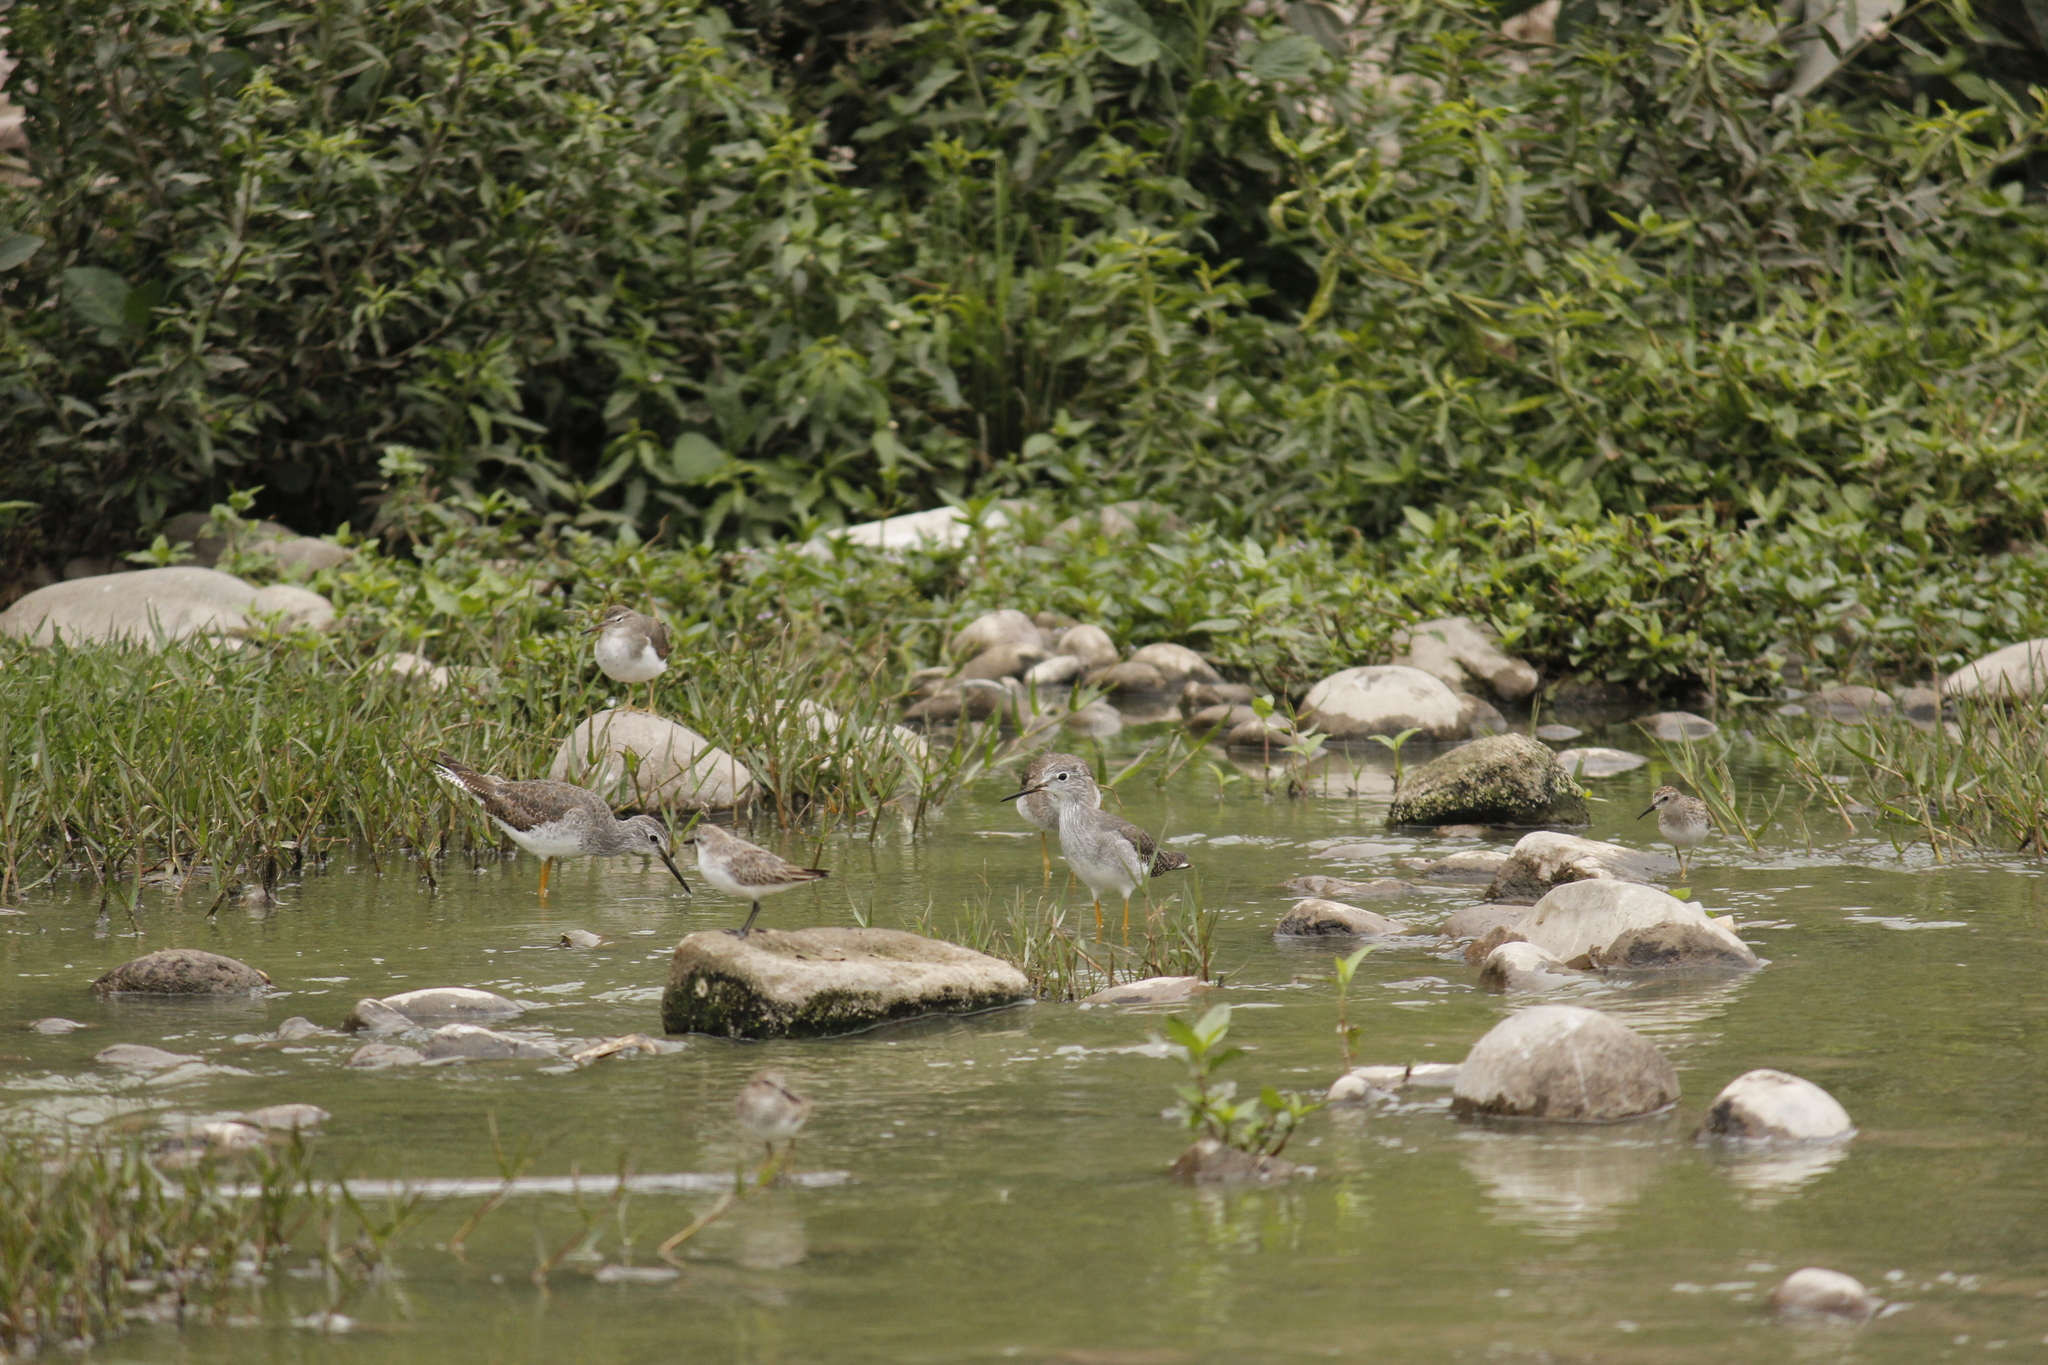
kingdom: Animalia
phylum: Chordata
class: Aves
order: Charadriiformes
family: Scolopacidae
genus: Tringa
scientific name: Tringa flavipes
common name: Lesser yellowlegs
